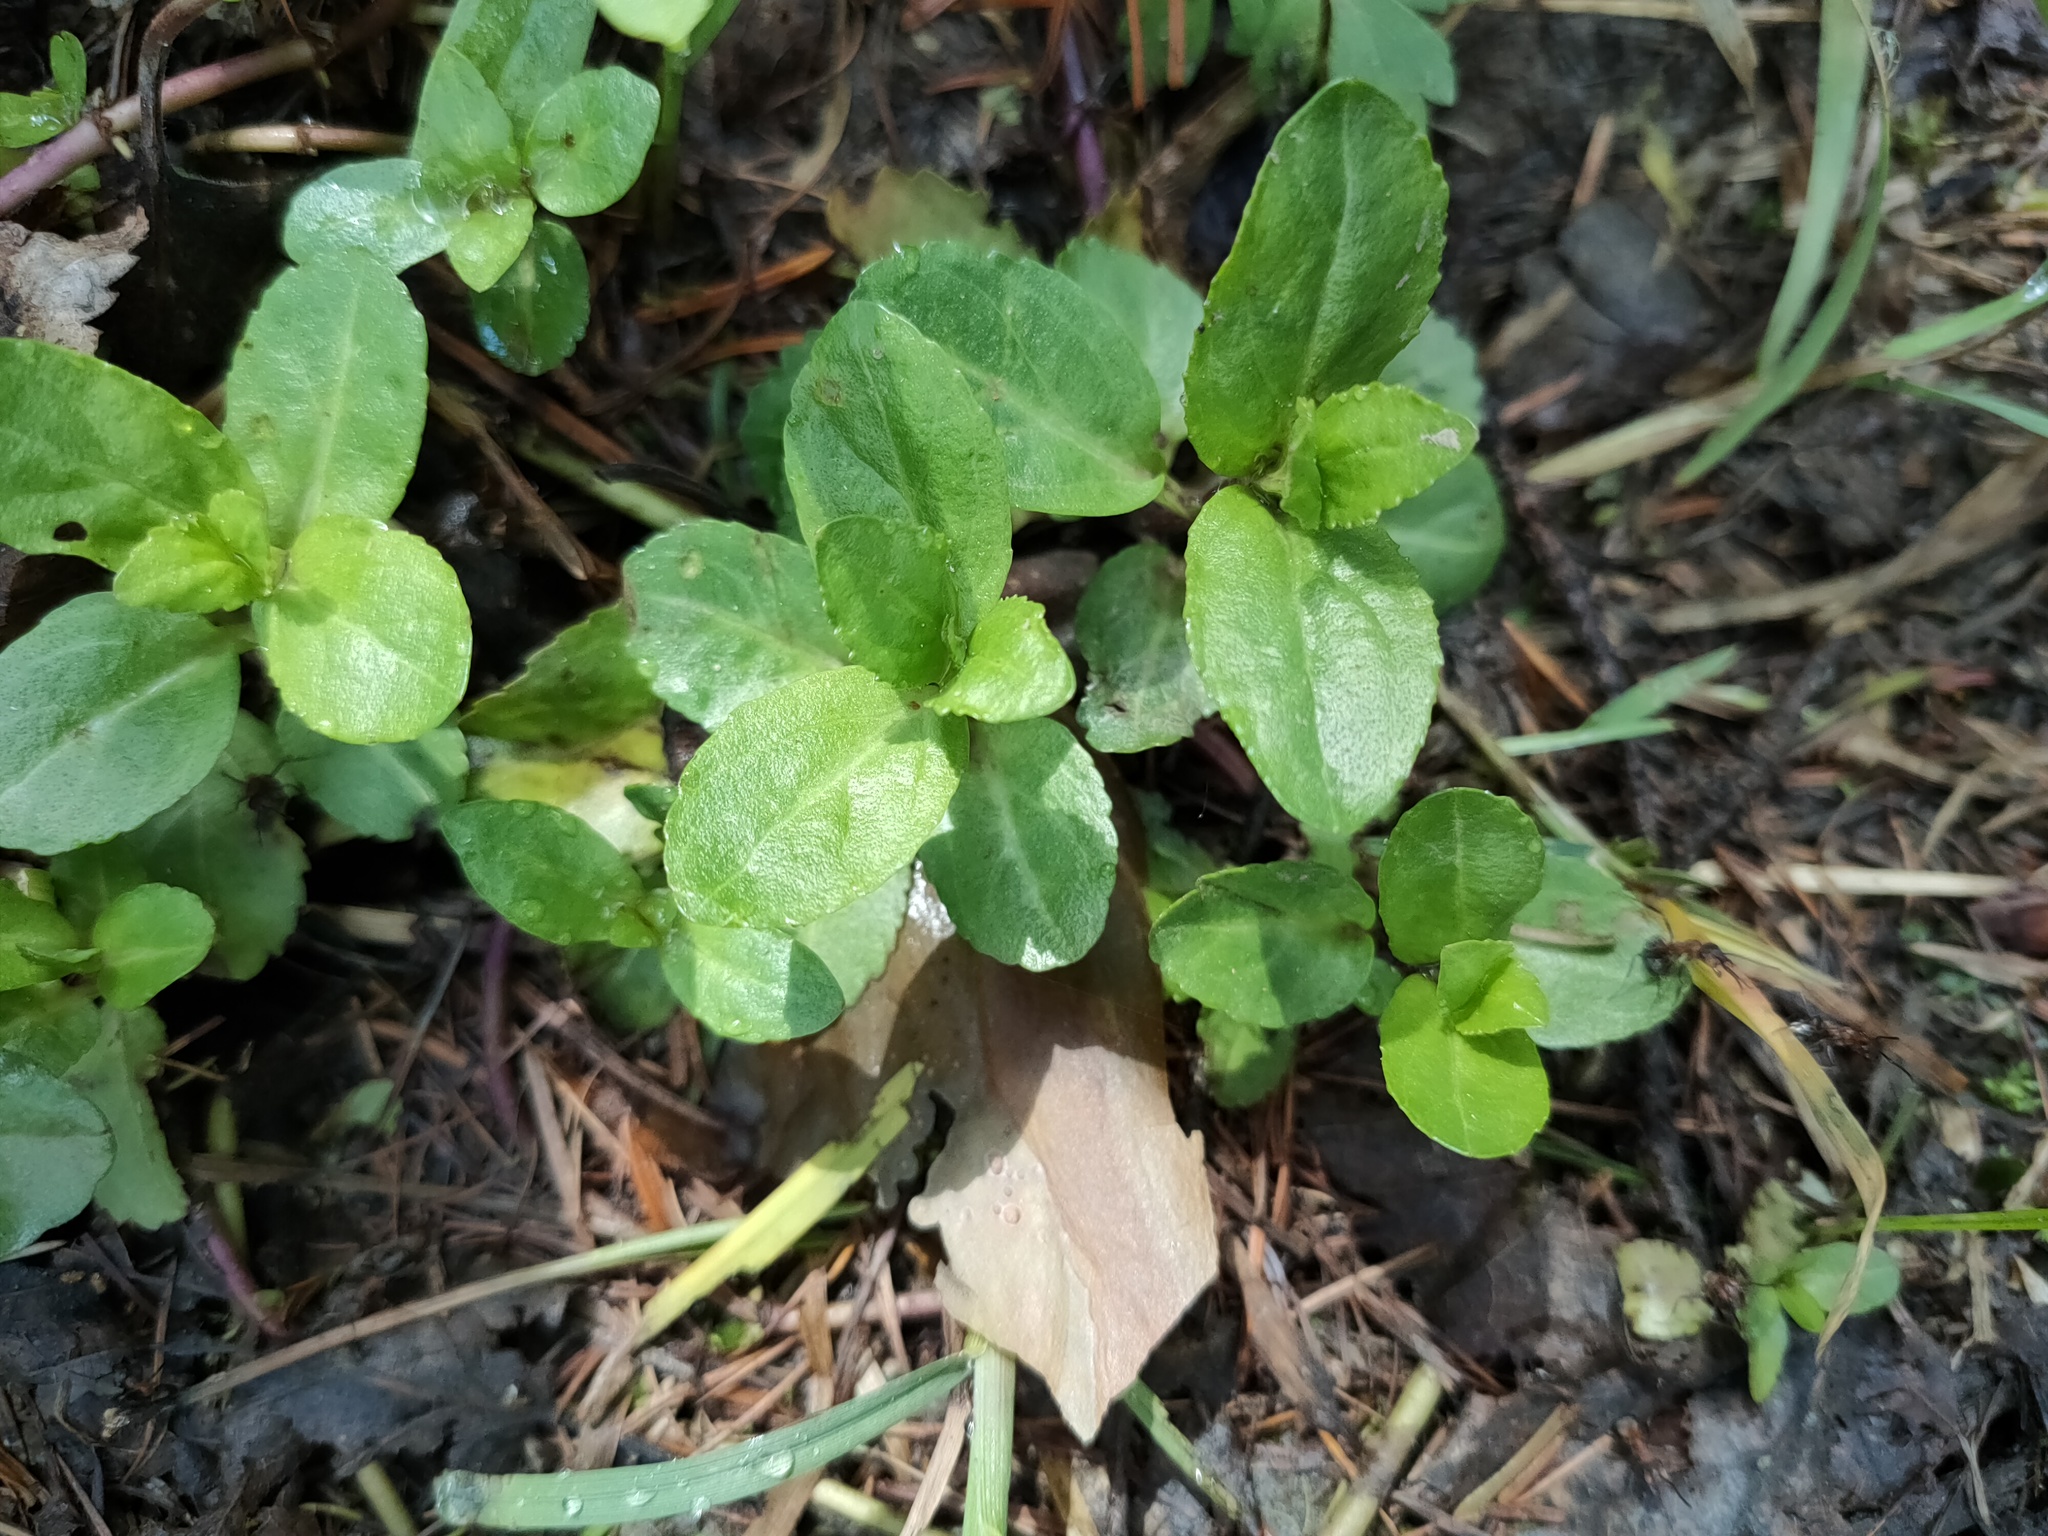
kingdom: Plantae
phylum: Tracheophyta
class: Magnoliopsida
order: Lamiales
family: Plantaginaceae
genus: Veronica
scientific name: Veronica beccabunga
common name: Brooklime
